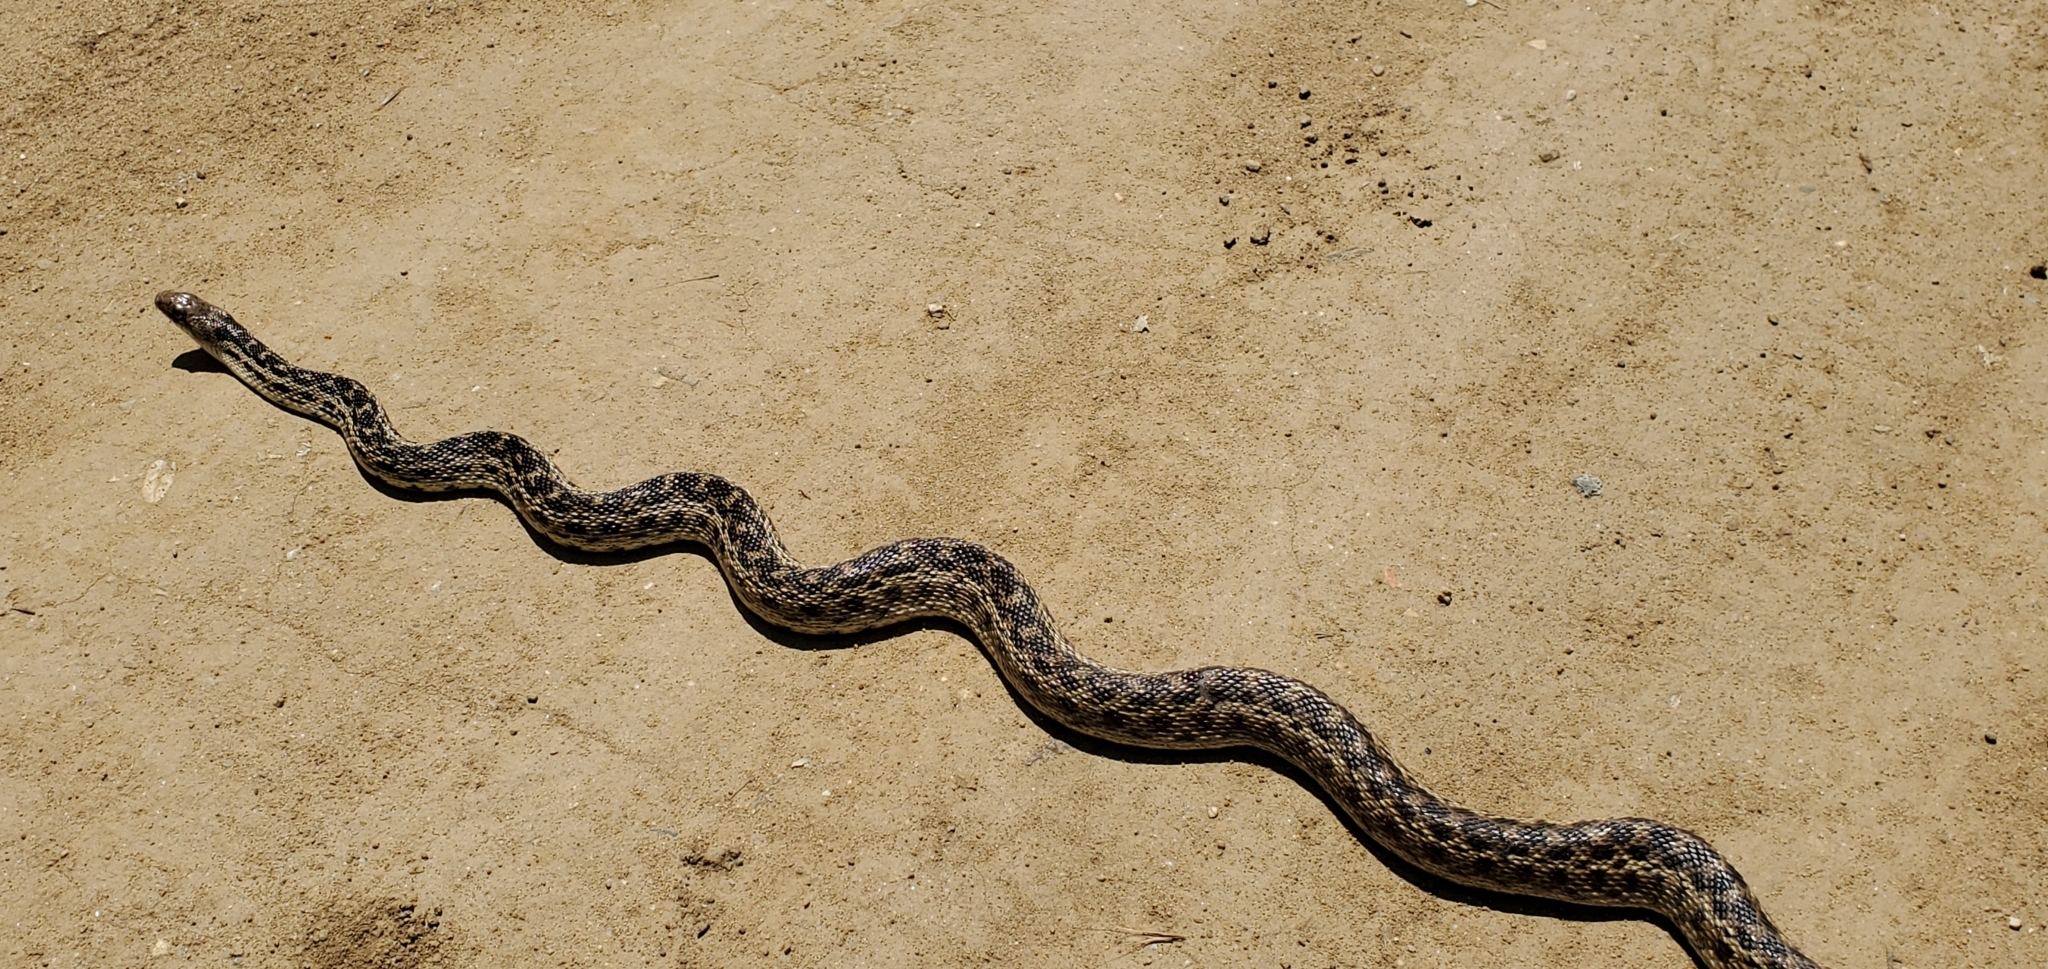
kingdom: Animalia
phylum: Chordata
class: Squamata
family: Colubridae
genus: Pituophis
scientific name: Pituophis catenifer
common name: Gopher snake
